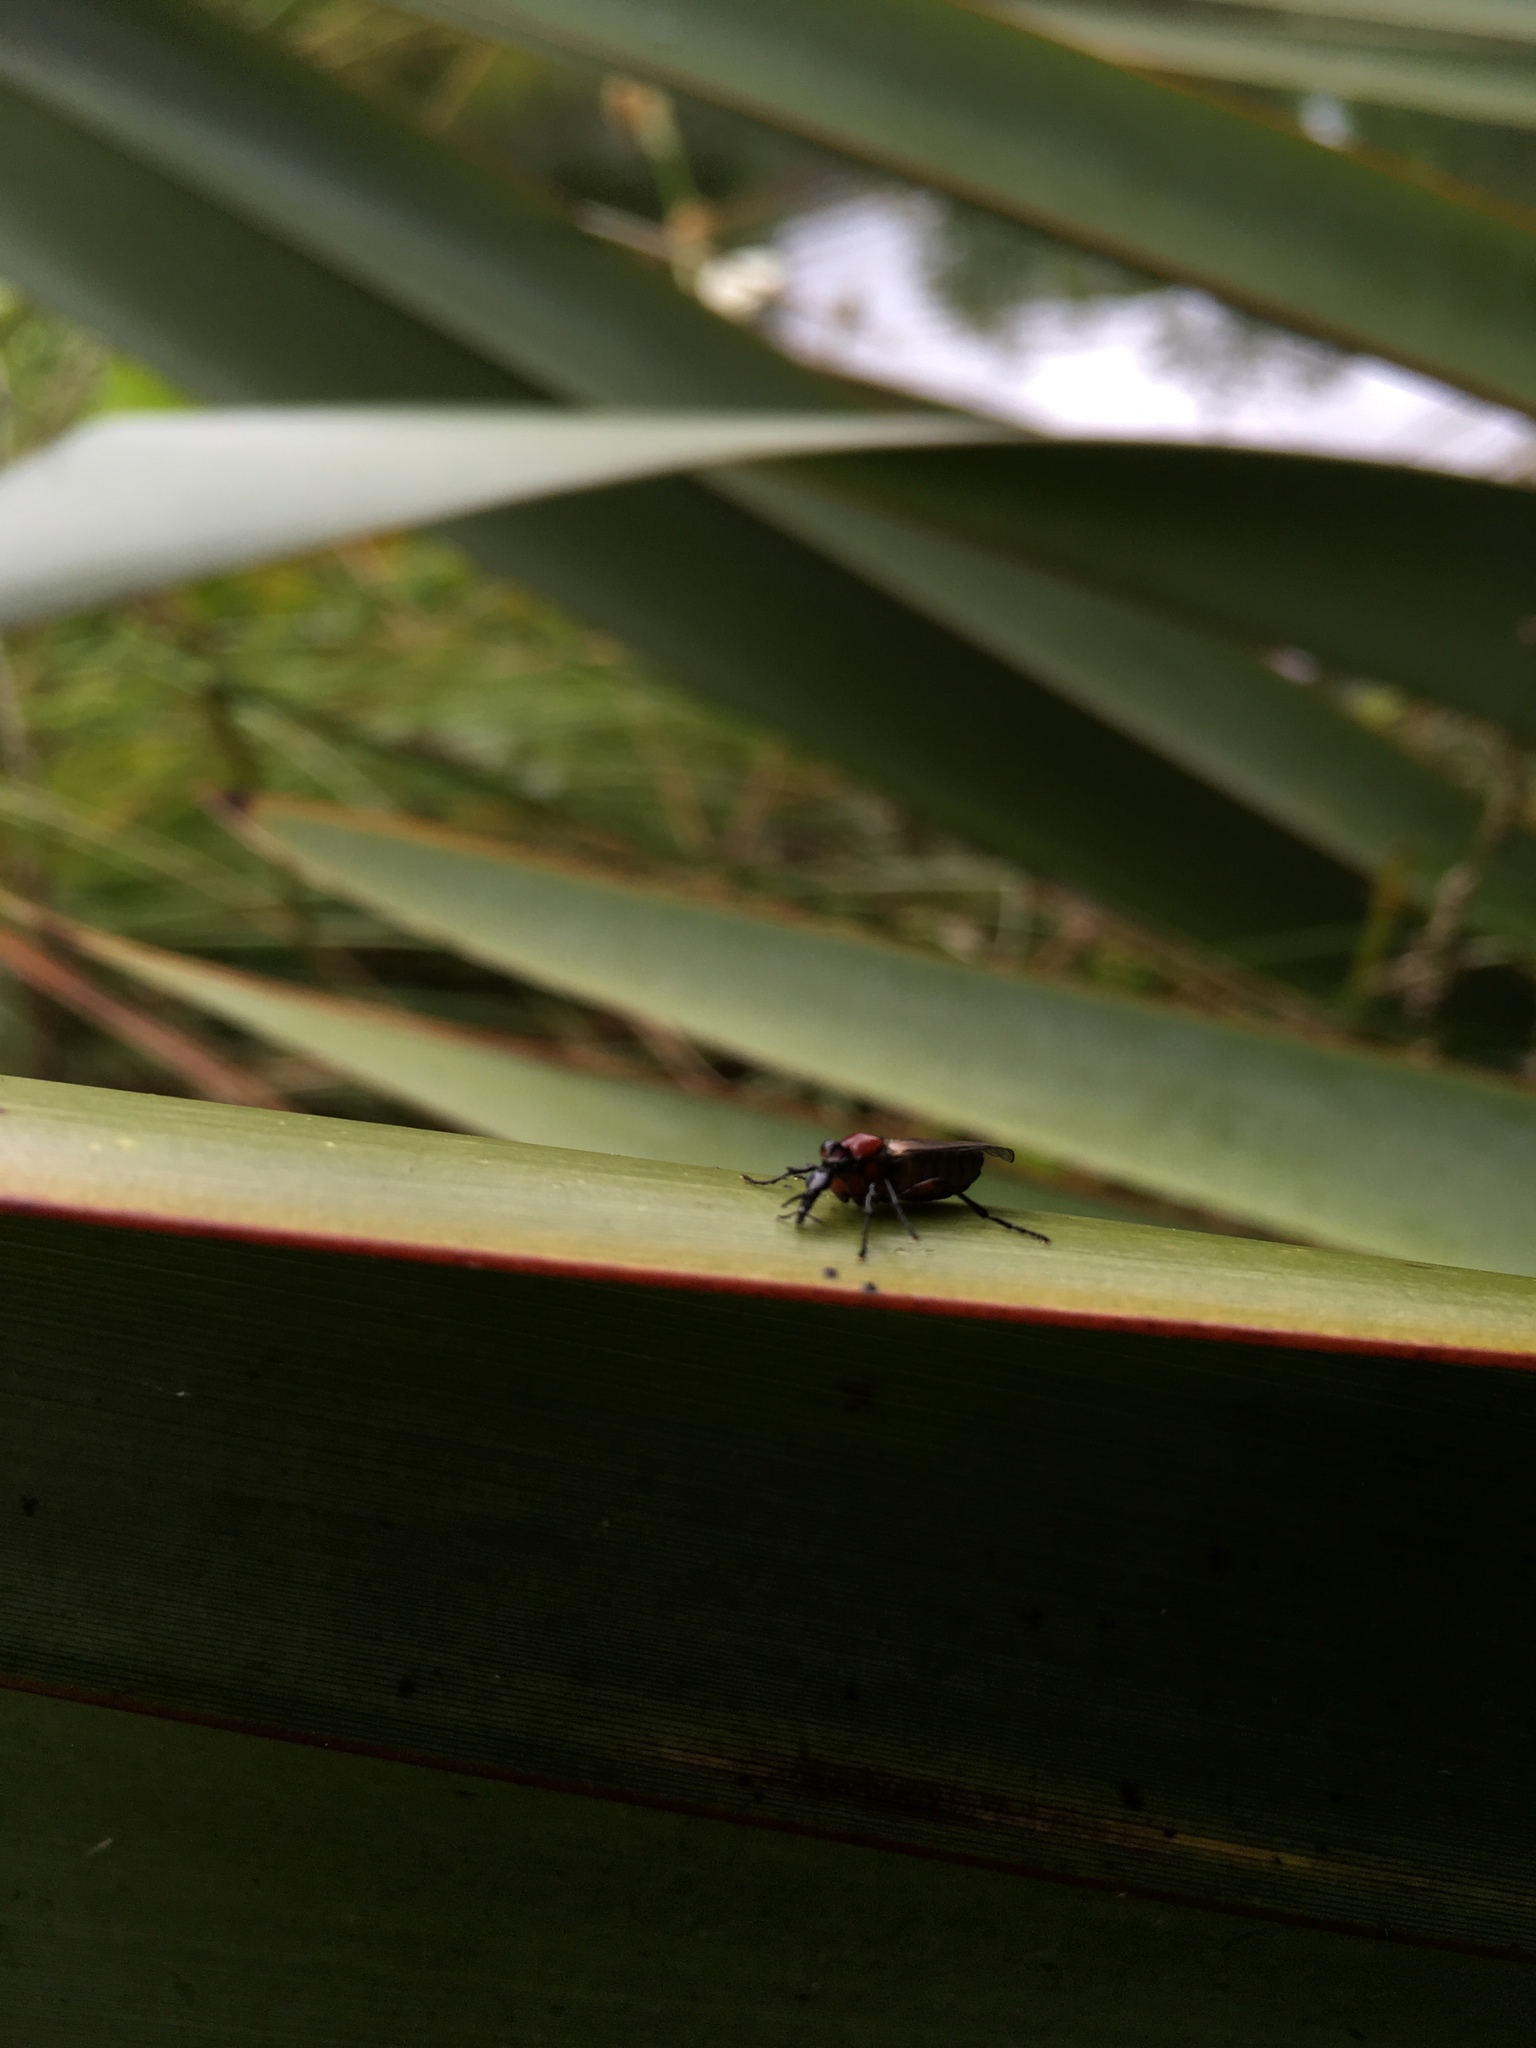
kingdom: Animalia
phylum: Arthropoda
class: Insecta
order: Diptera
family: Bibionidae
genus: Dilophus
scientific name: Dilophus nigrostigma
